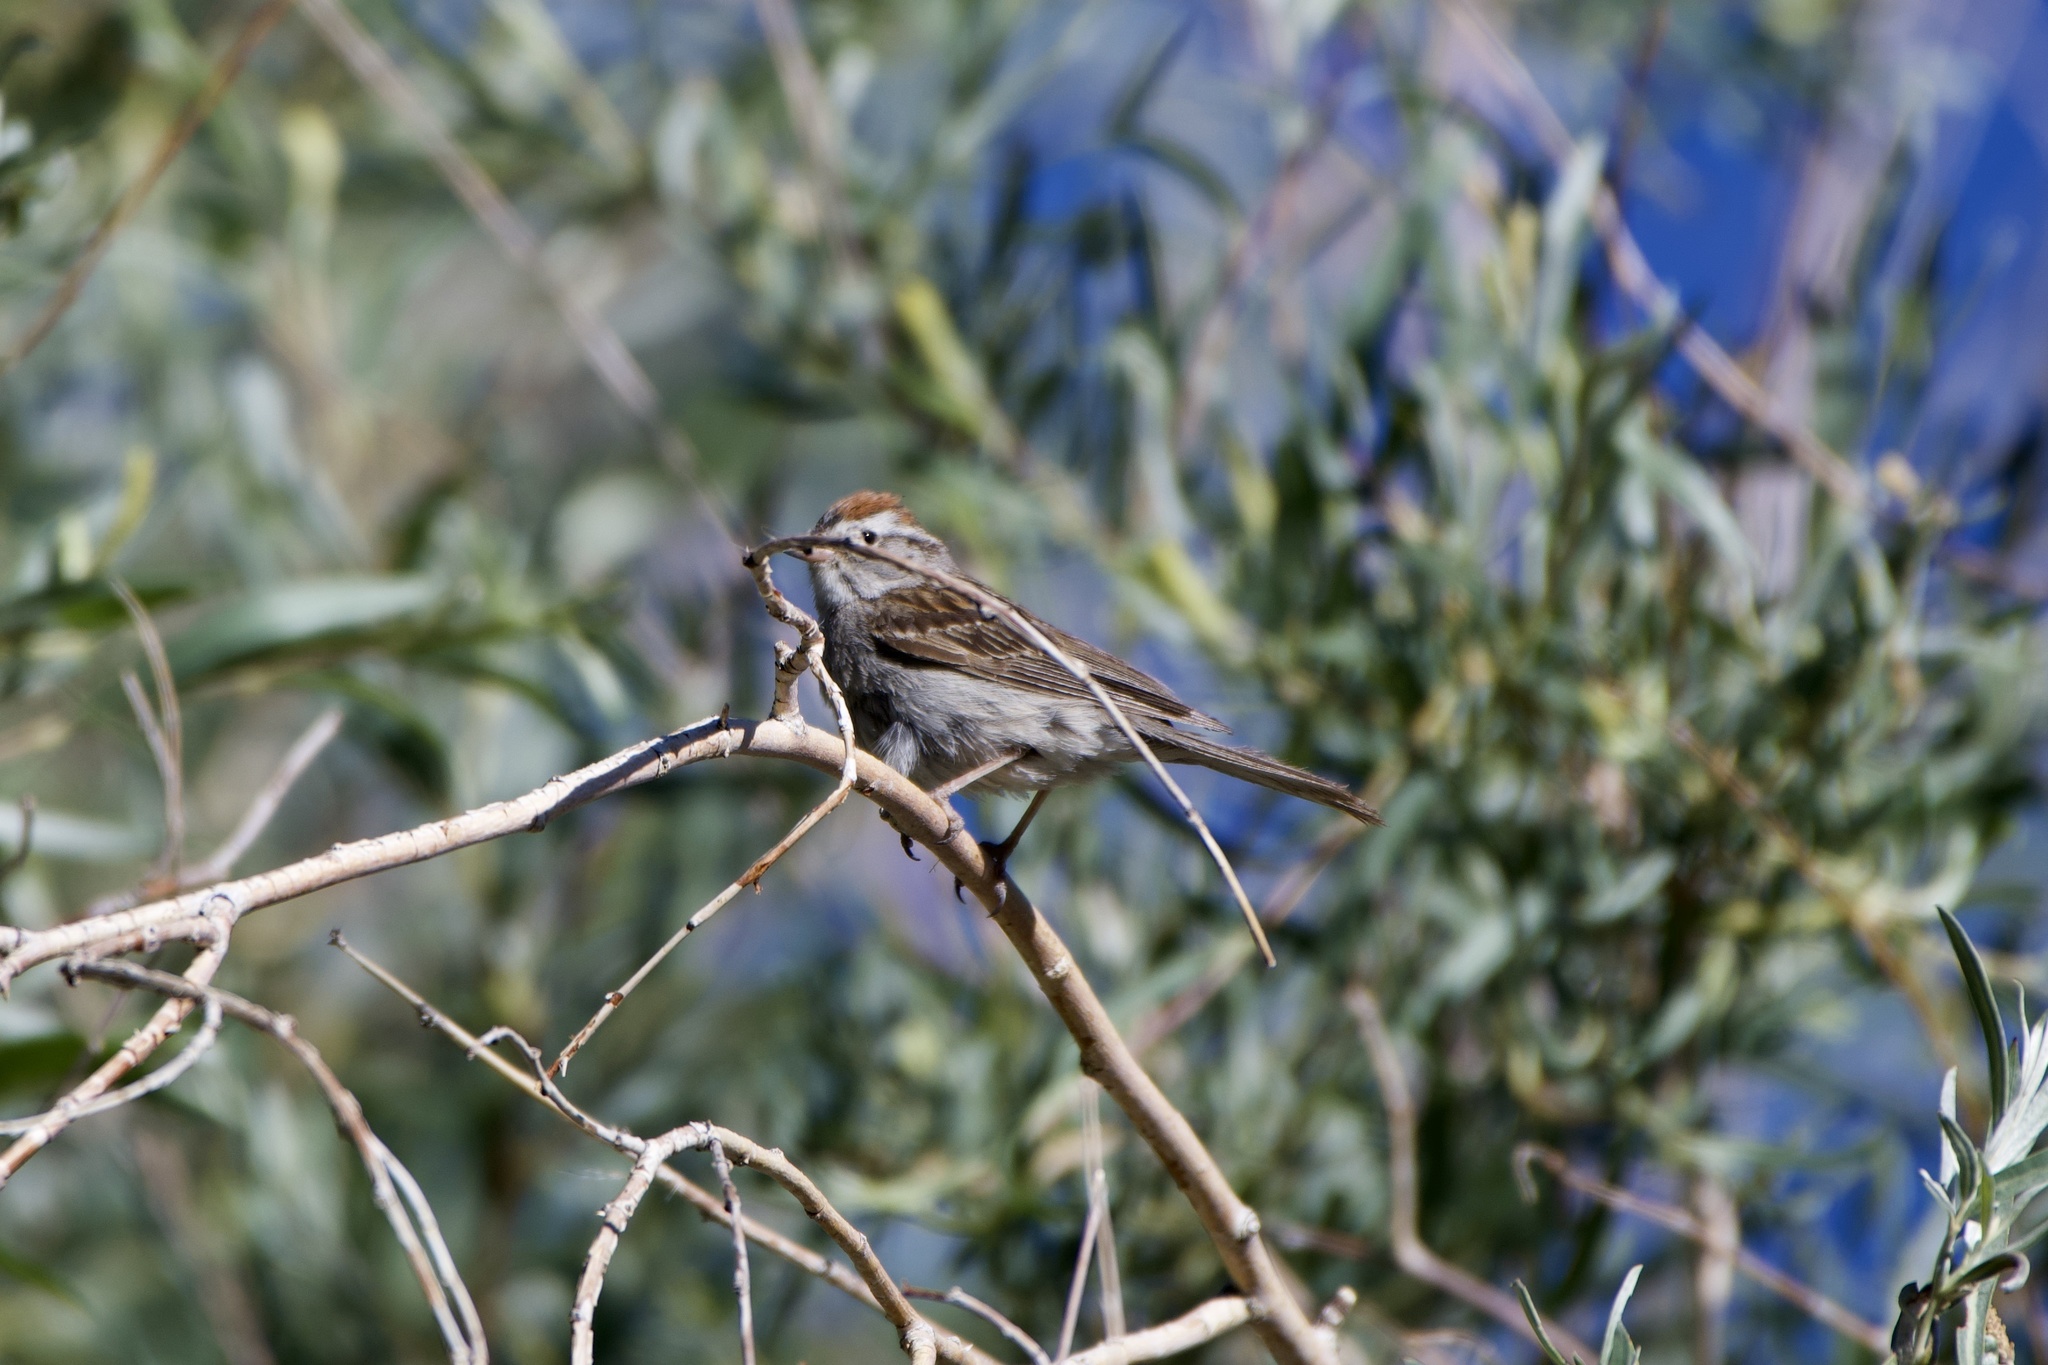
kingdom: Animalia
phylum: Chordata
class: Aves
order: Passeriformes
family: Passerellidae
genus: Spizella
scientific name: Spizella passerina
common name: Chipping sparrow
